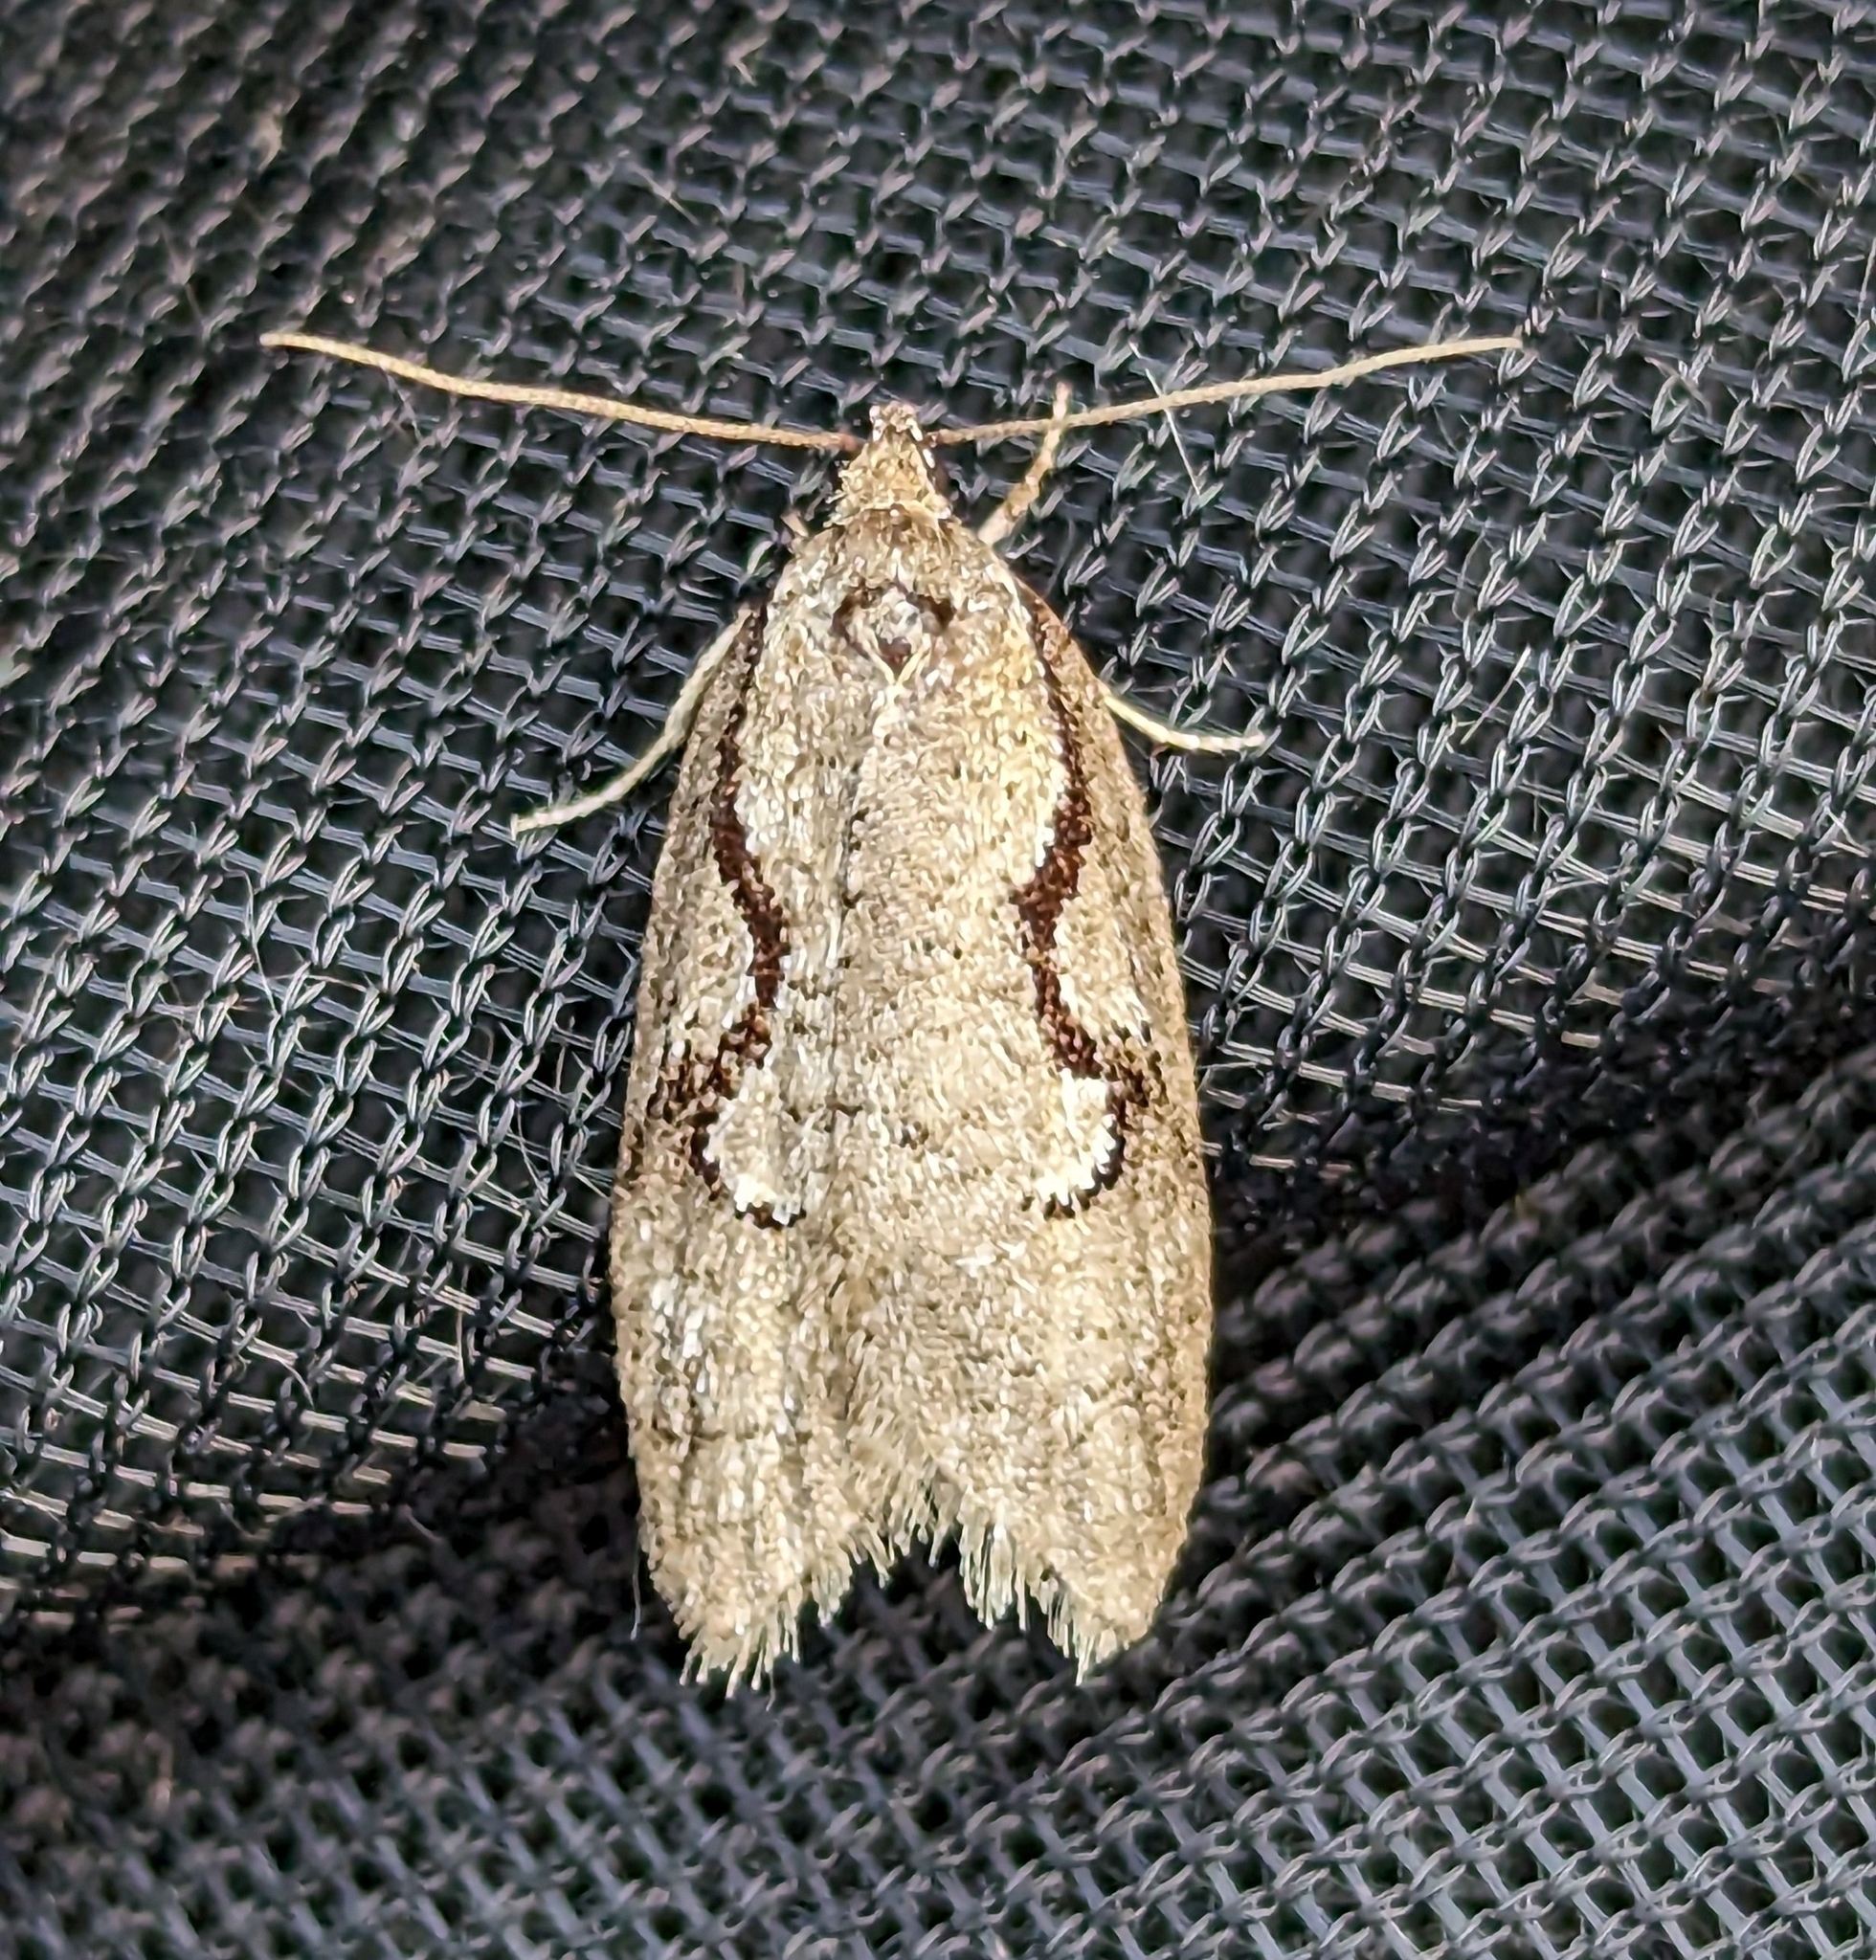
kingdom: Animalia
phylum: Arthropoda
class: Insecta
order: Lepidoptera
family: Depressariidae
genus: Semioscopis
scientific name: Semioscopis packardella
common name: Packard's concealer moth
